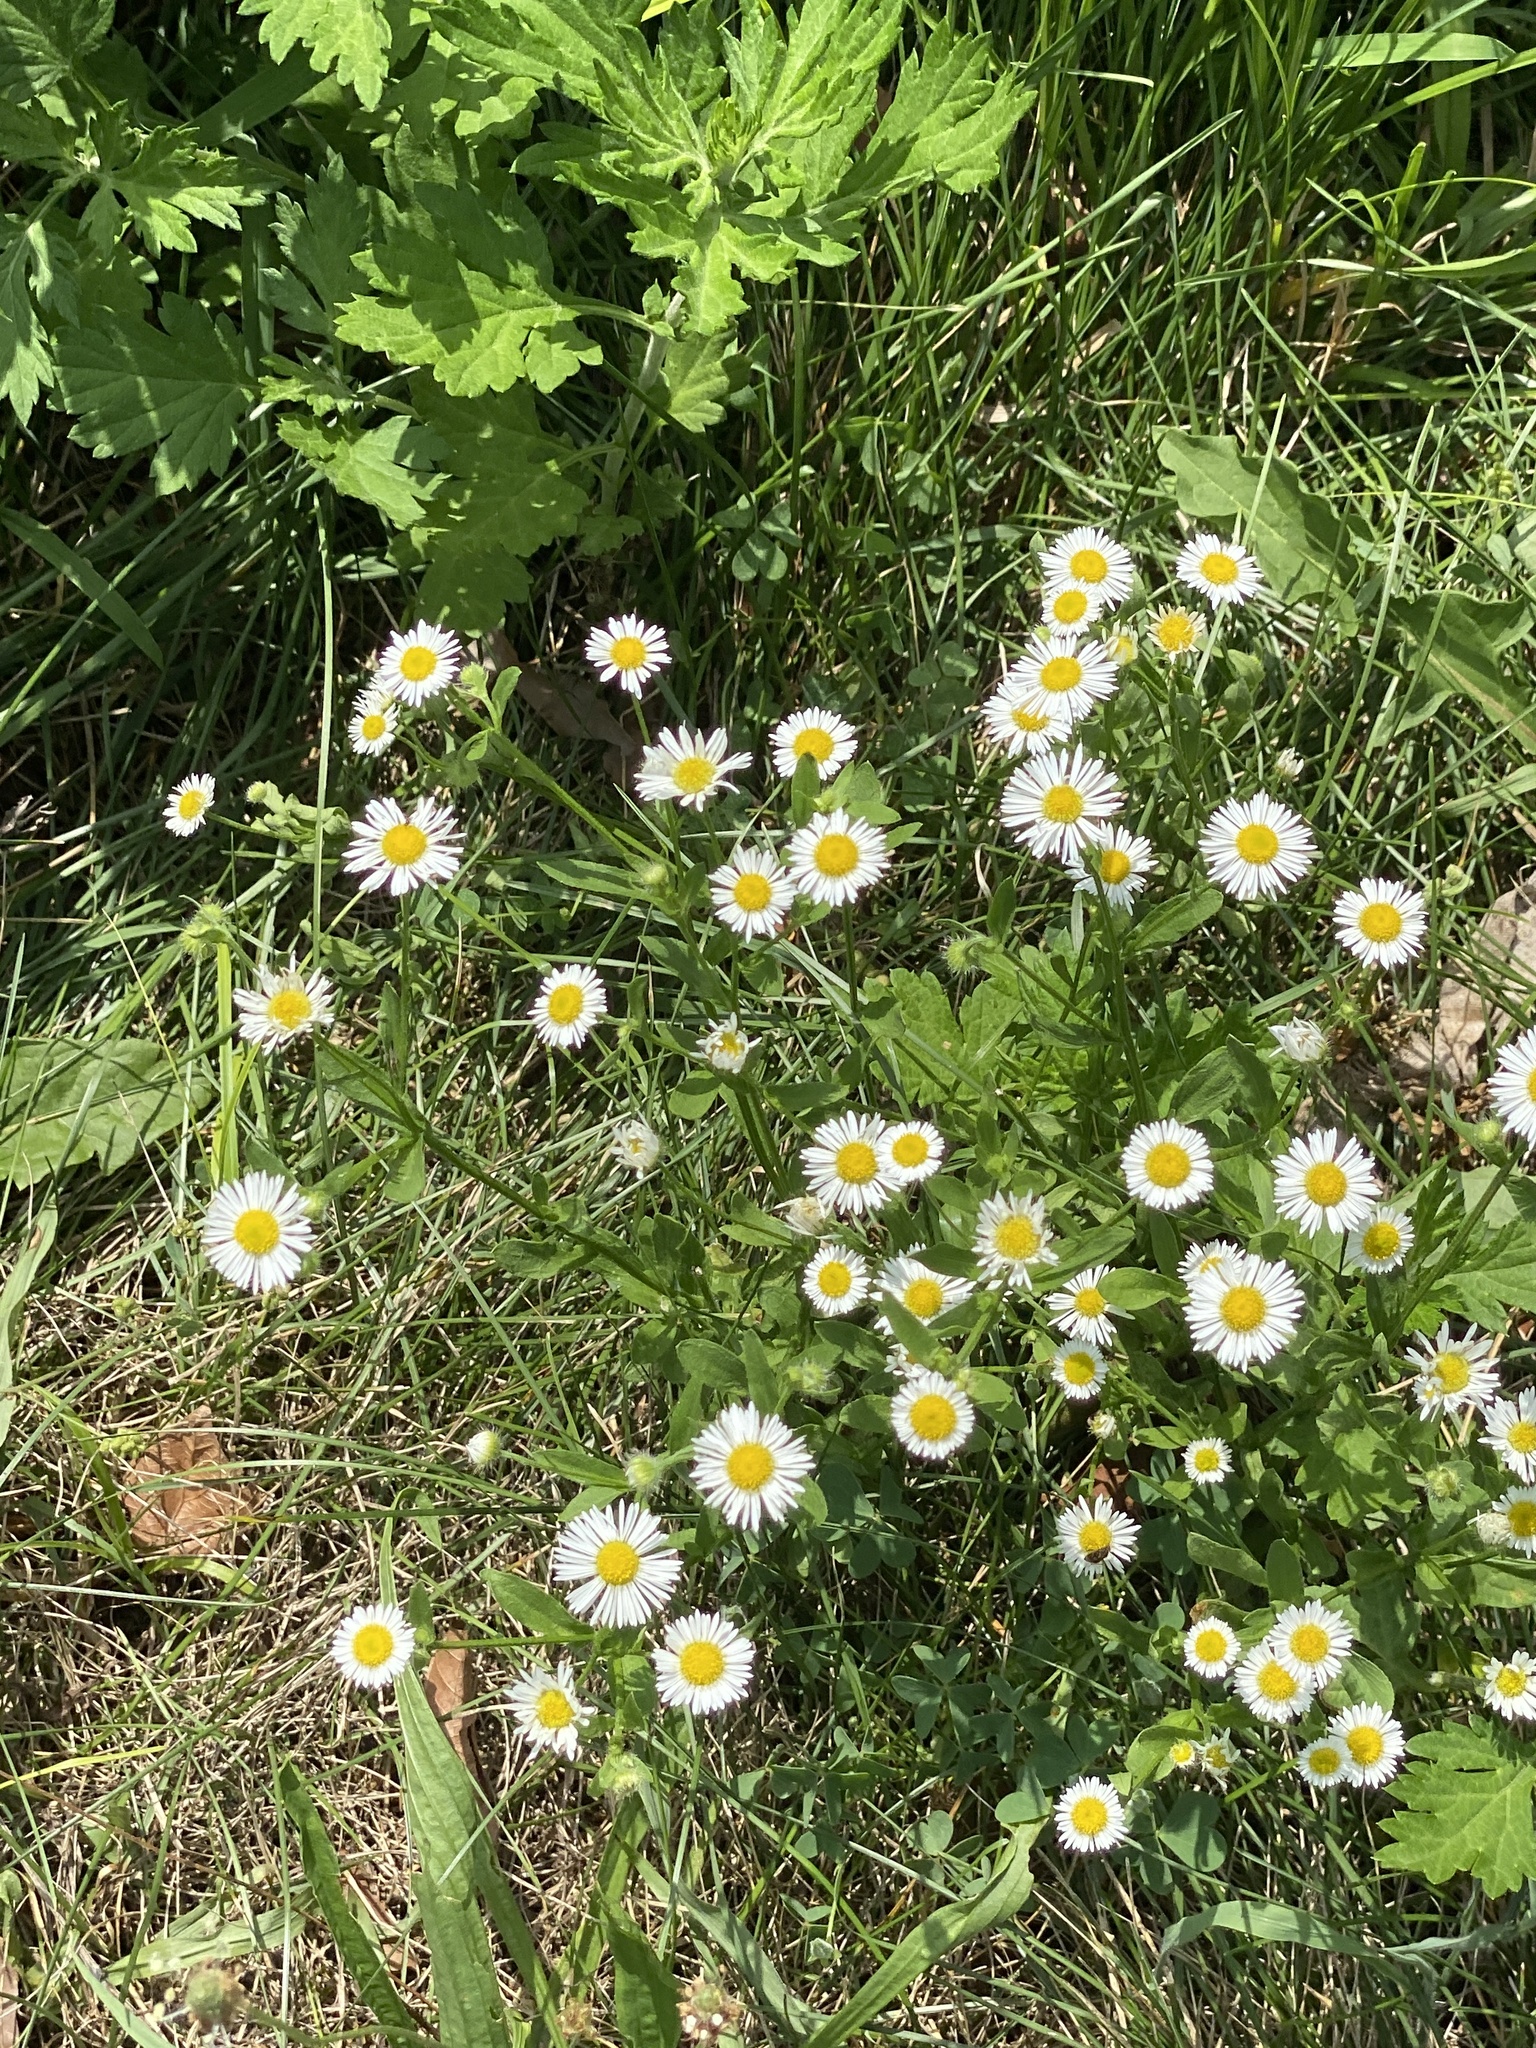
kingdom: Plantae
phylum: Tracheophyta
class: Magnoliopsida
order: Asterales
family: Asteraceae
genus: Erigeron
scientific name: Erigeron strigosus
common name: Common eastern fleabane
